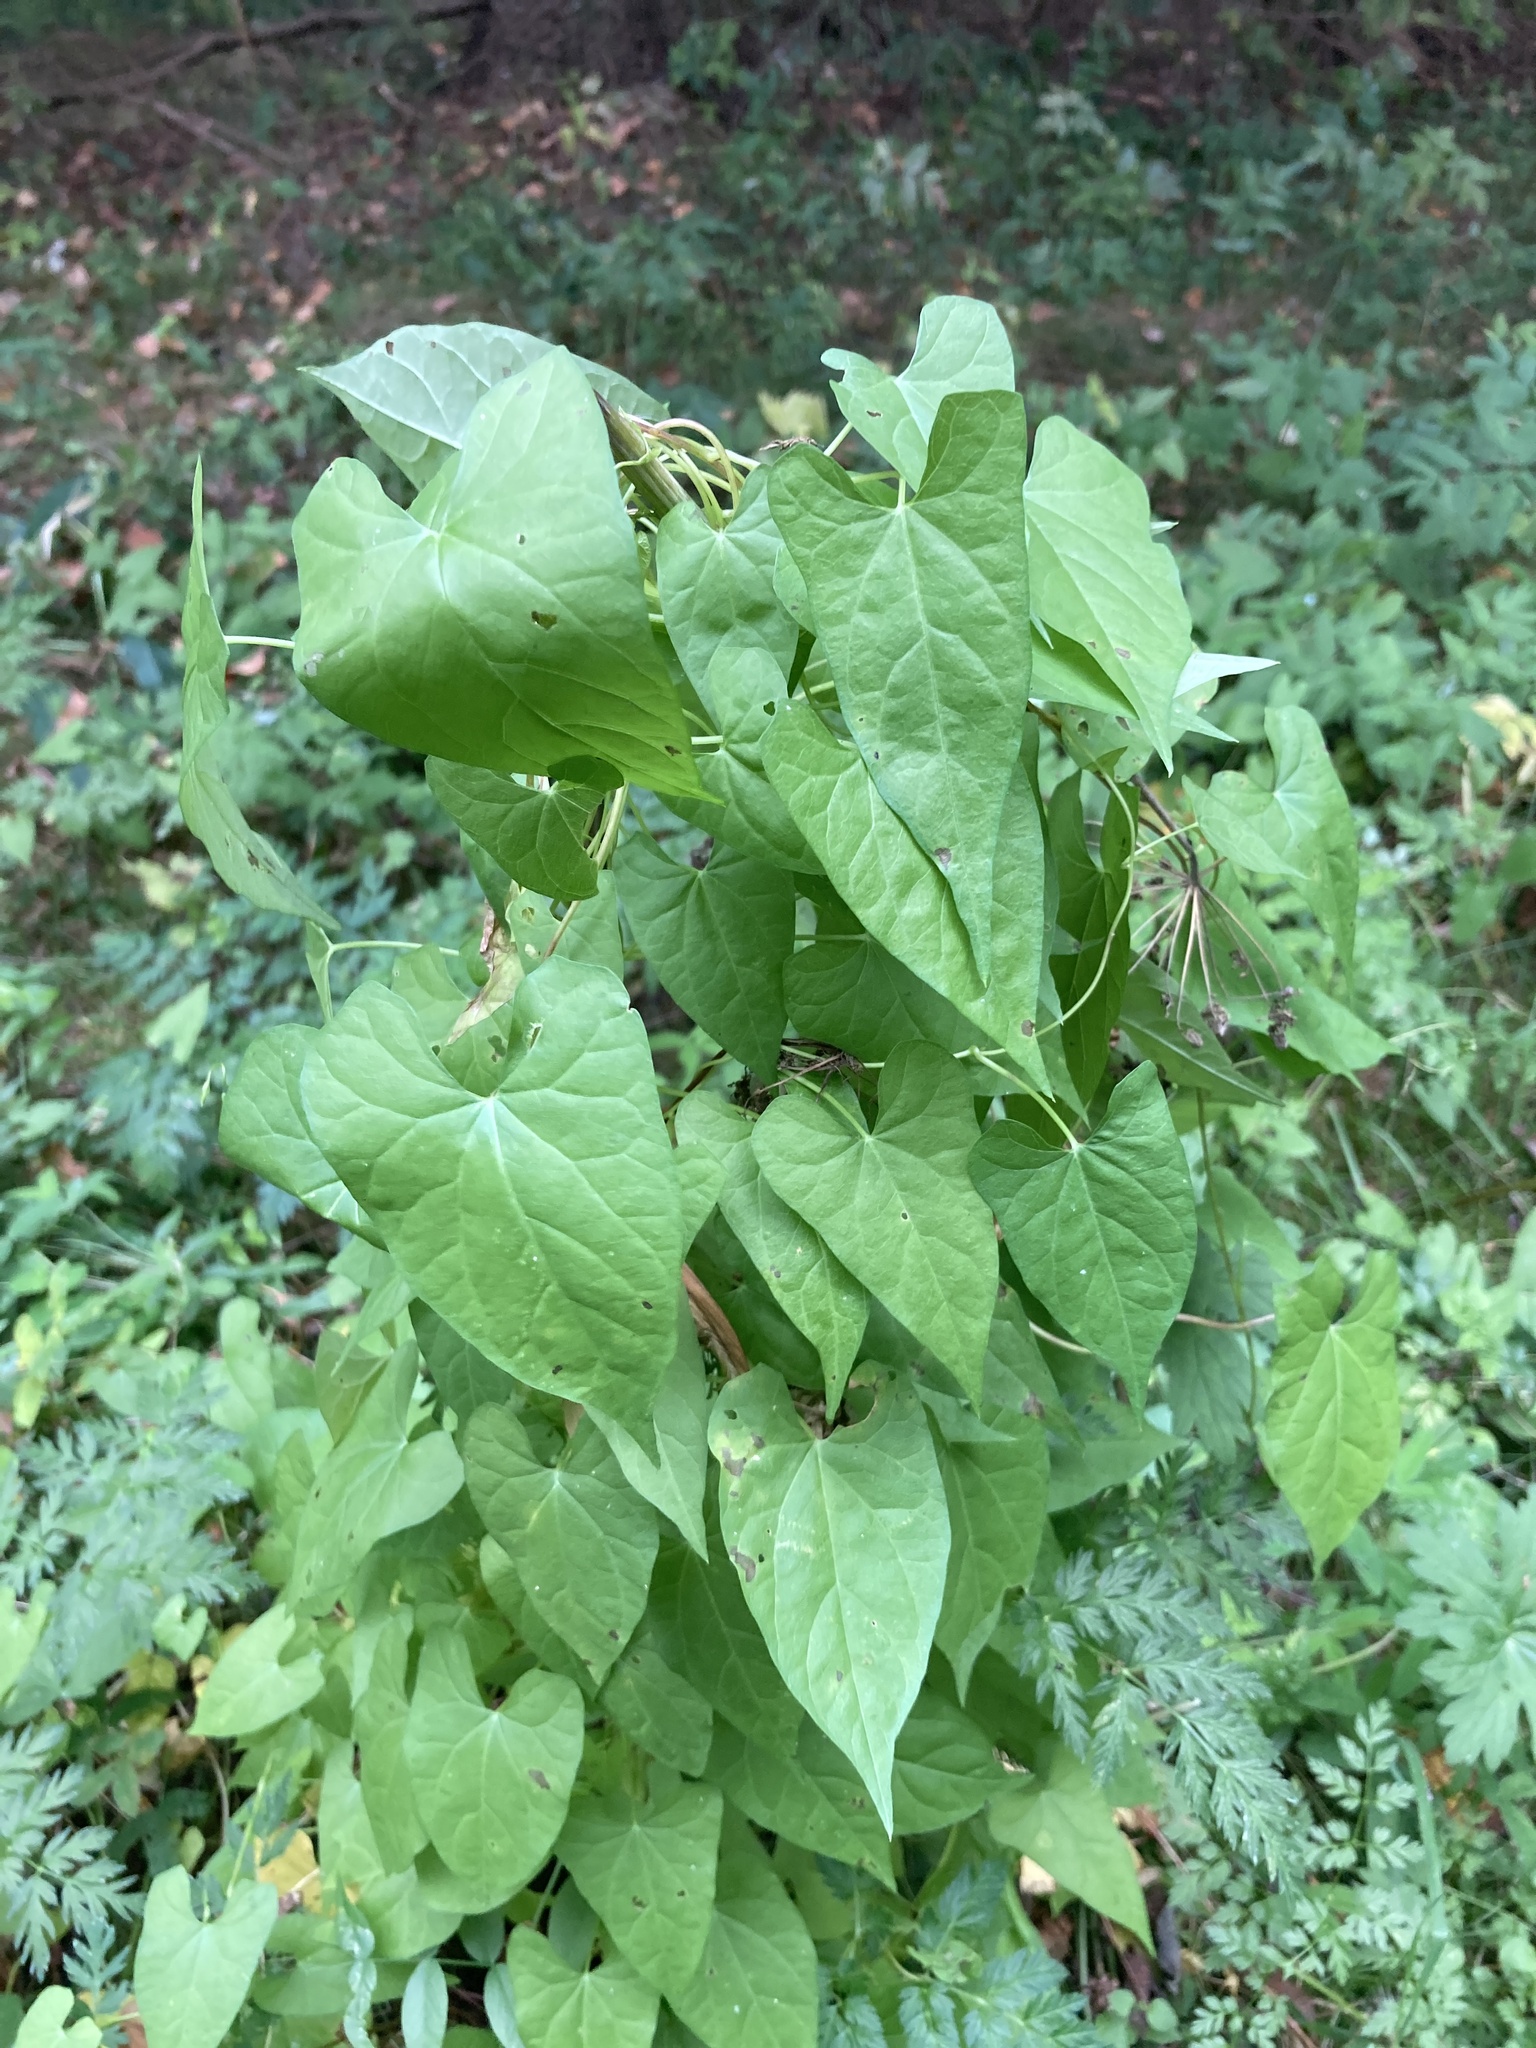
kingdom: Plantae
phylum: Tracheophyta
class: Magnoliopsida
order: Solanales
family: Convolvulaceae
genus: Calystegia
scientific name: Calystegia
